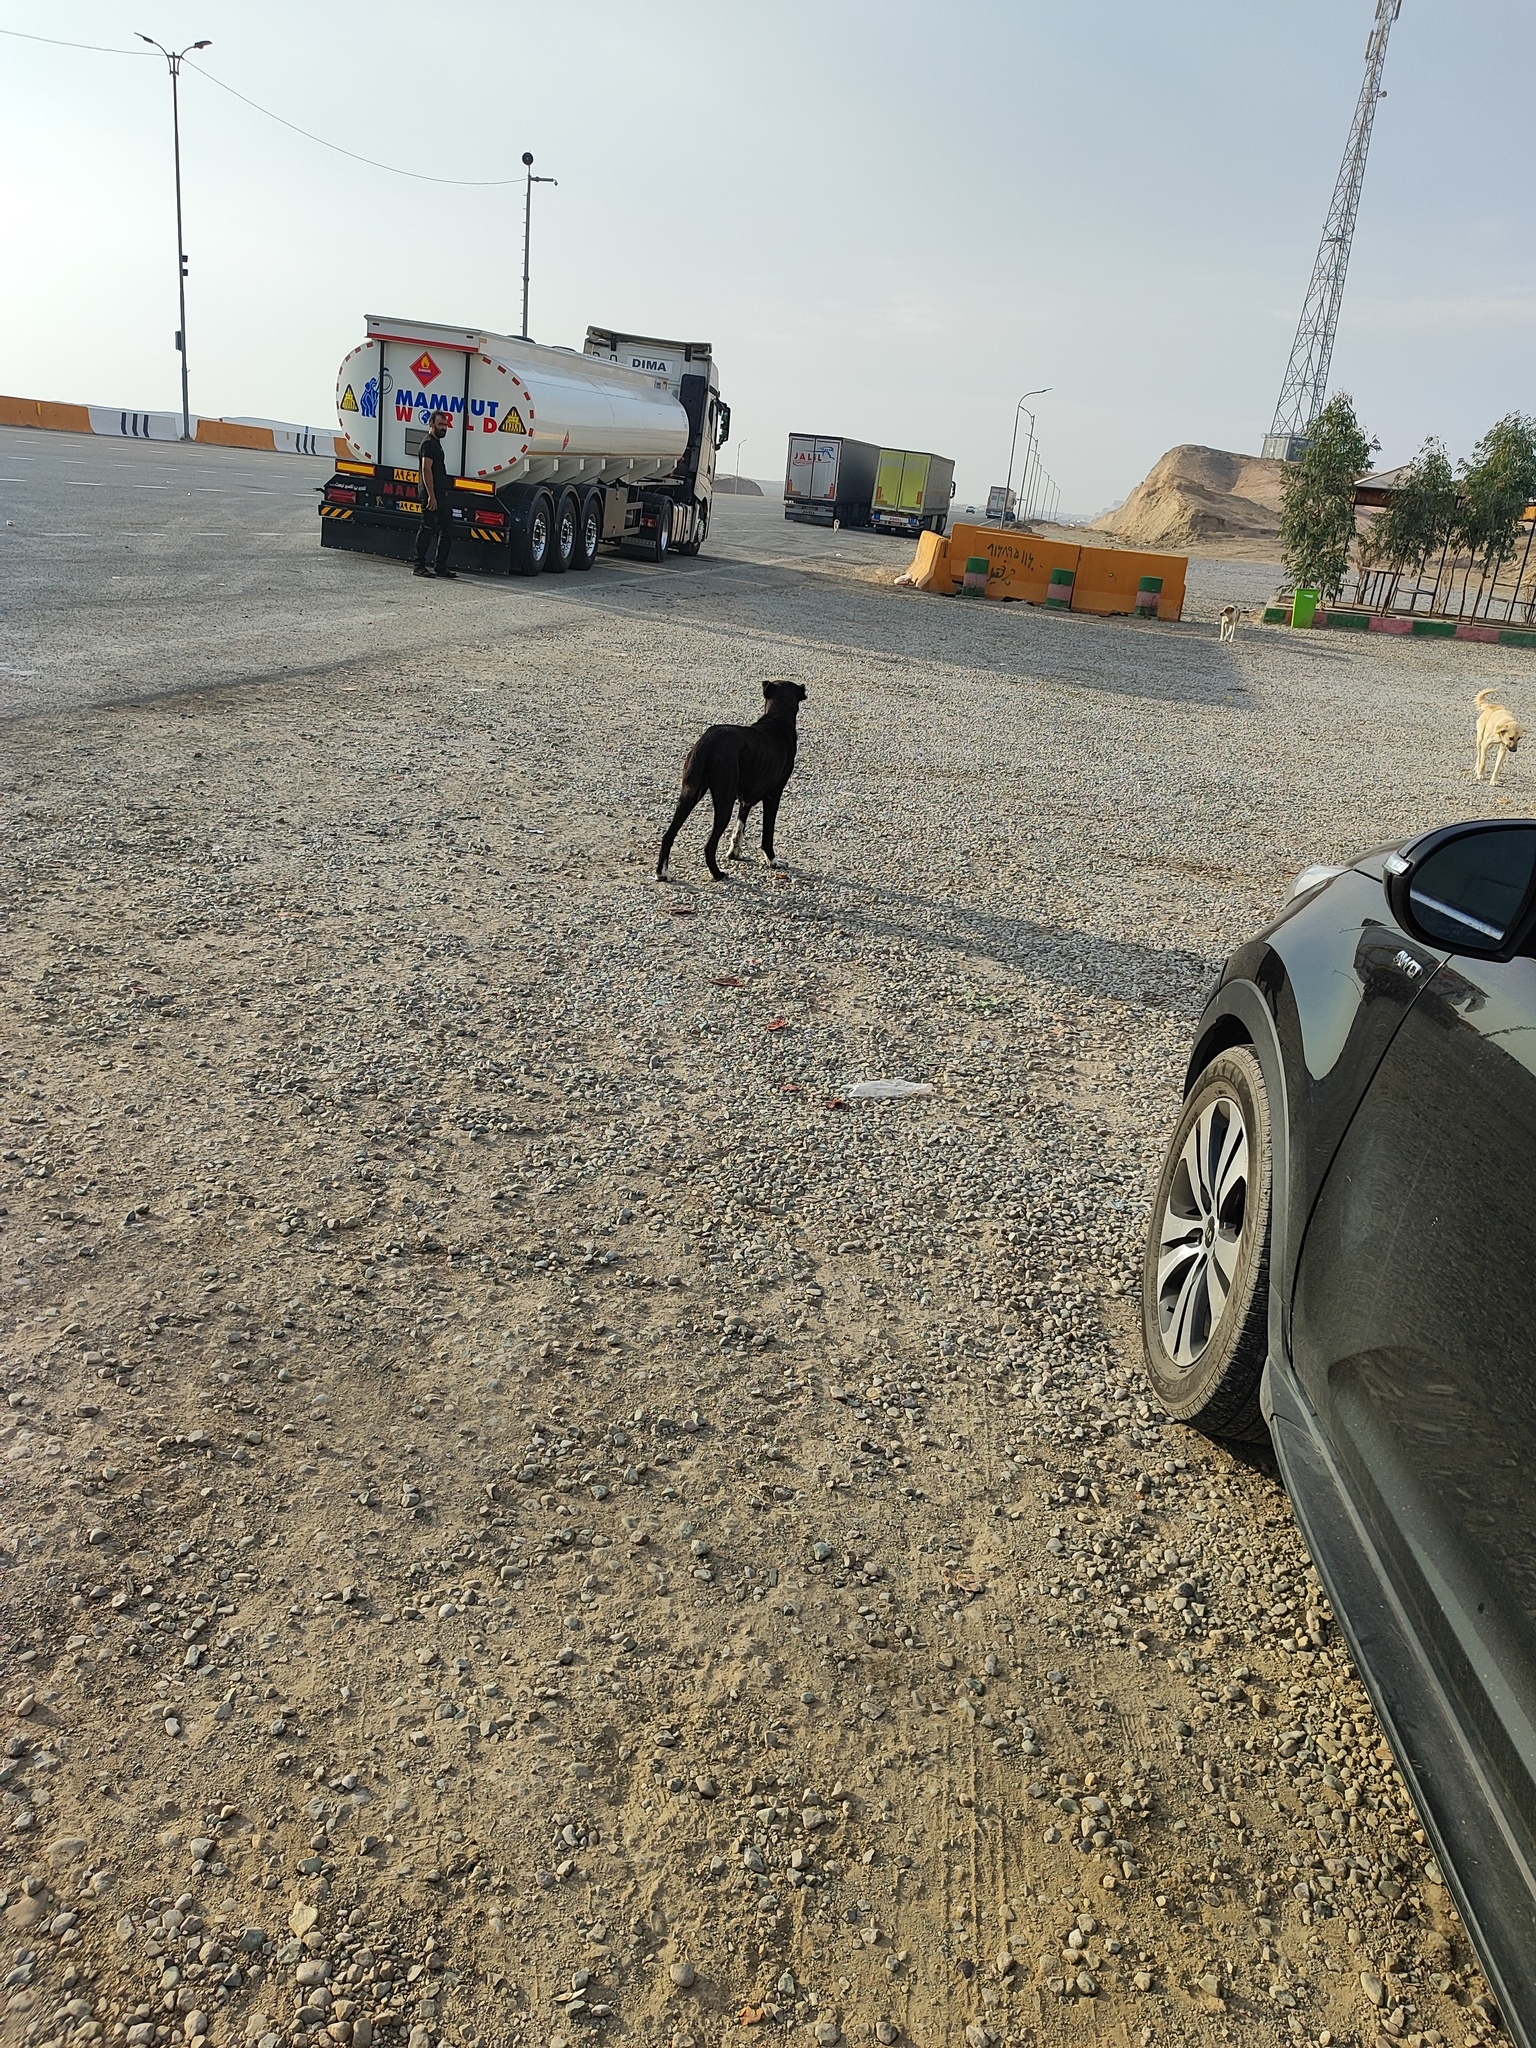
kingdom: Animalia
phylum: Chordata
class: Mammalia
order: Carnivora
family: Canidae
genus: Canis
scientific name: Canis lupus
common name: Gray wolf
